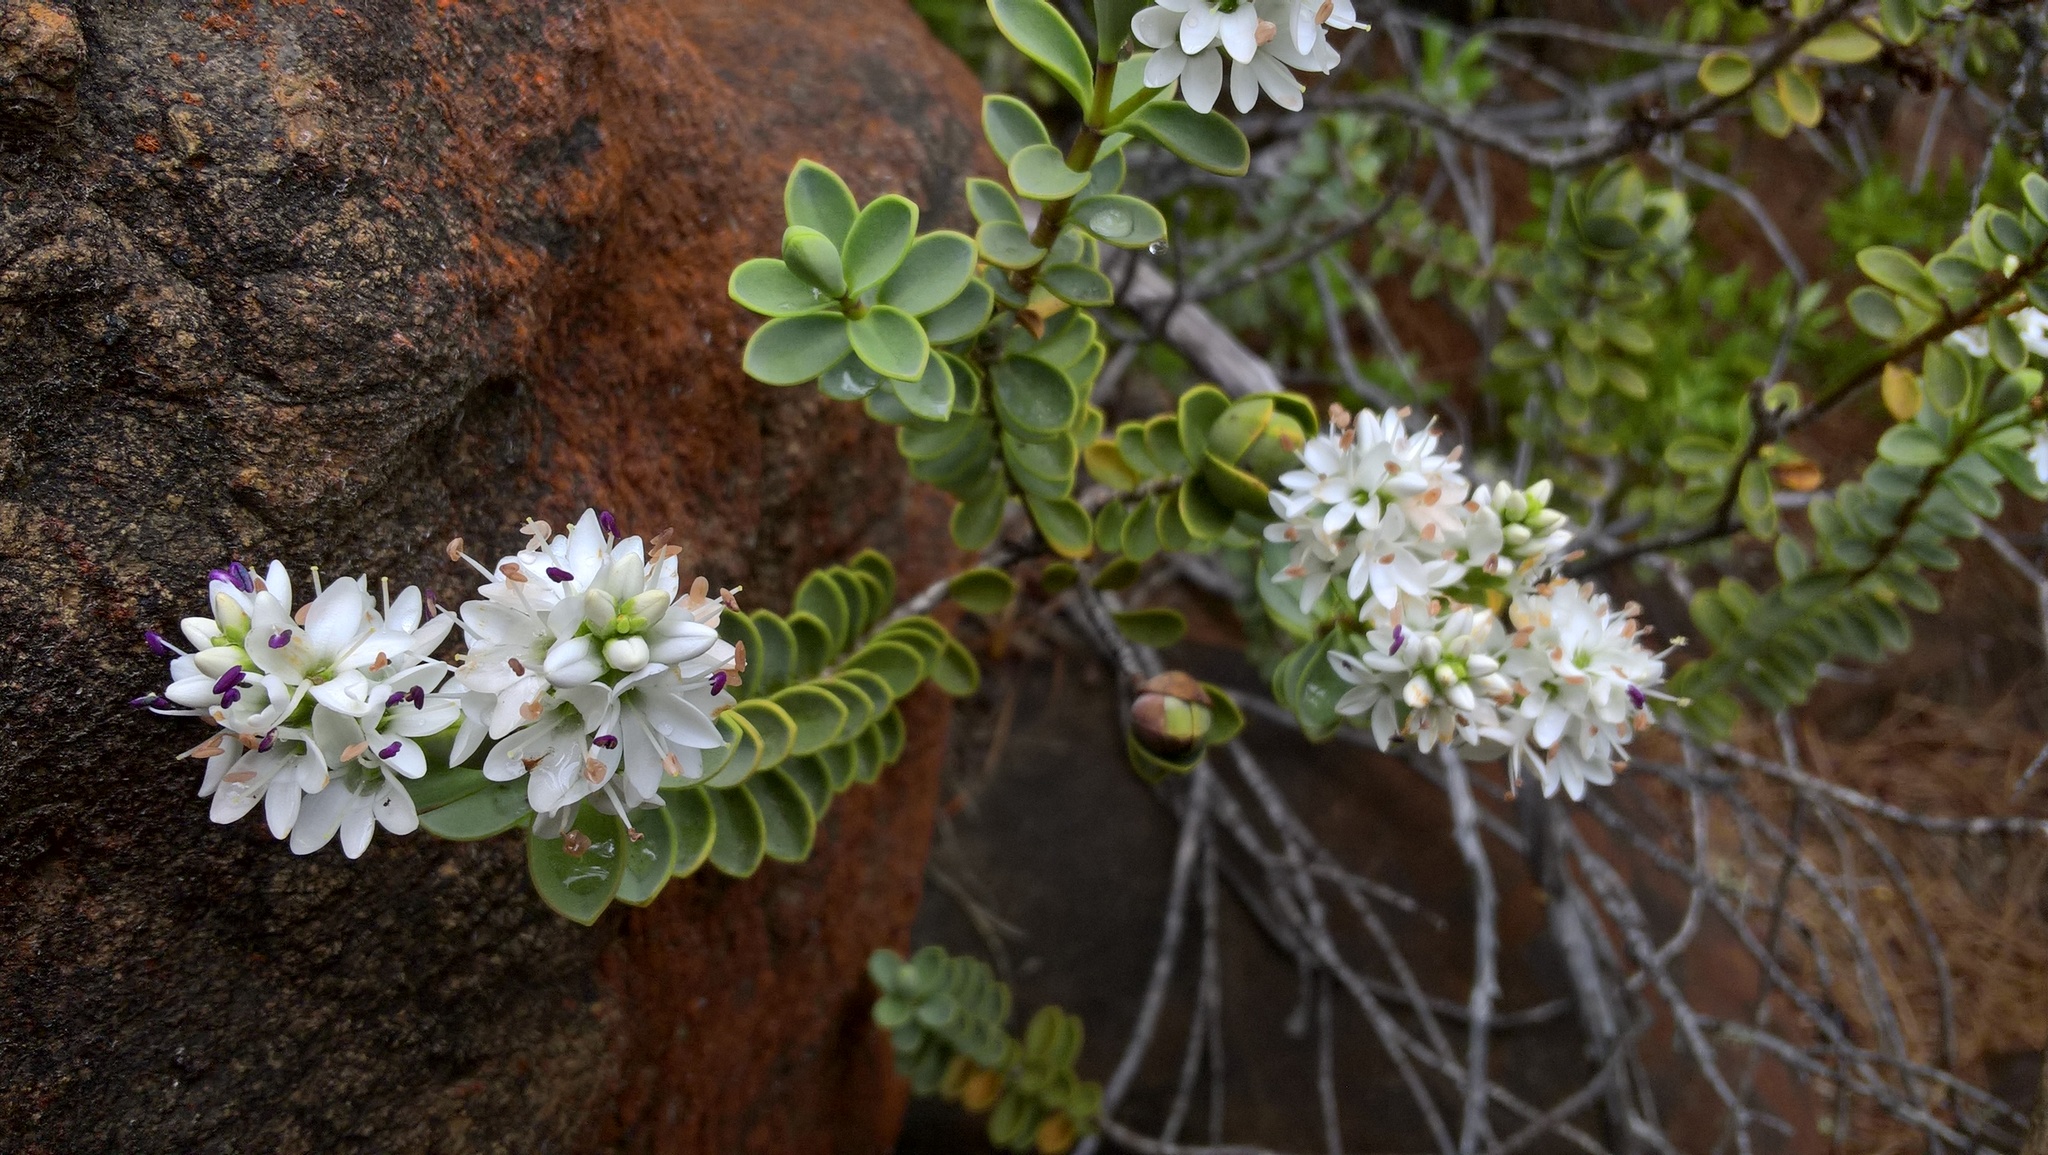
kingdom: Plantae
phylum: Tracheophyta
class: Magnoliopsida
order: Lamiales
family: Plantaginaceae
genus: Veronica
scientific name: Veronica baylyi
